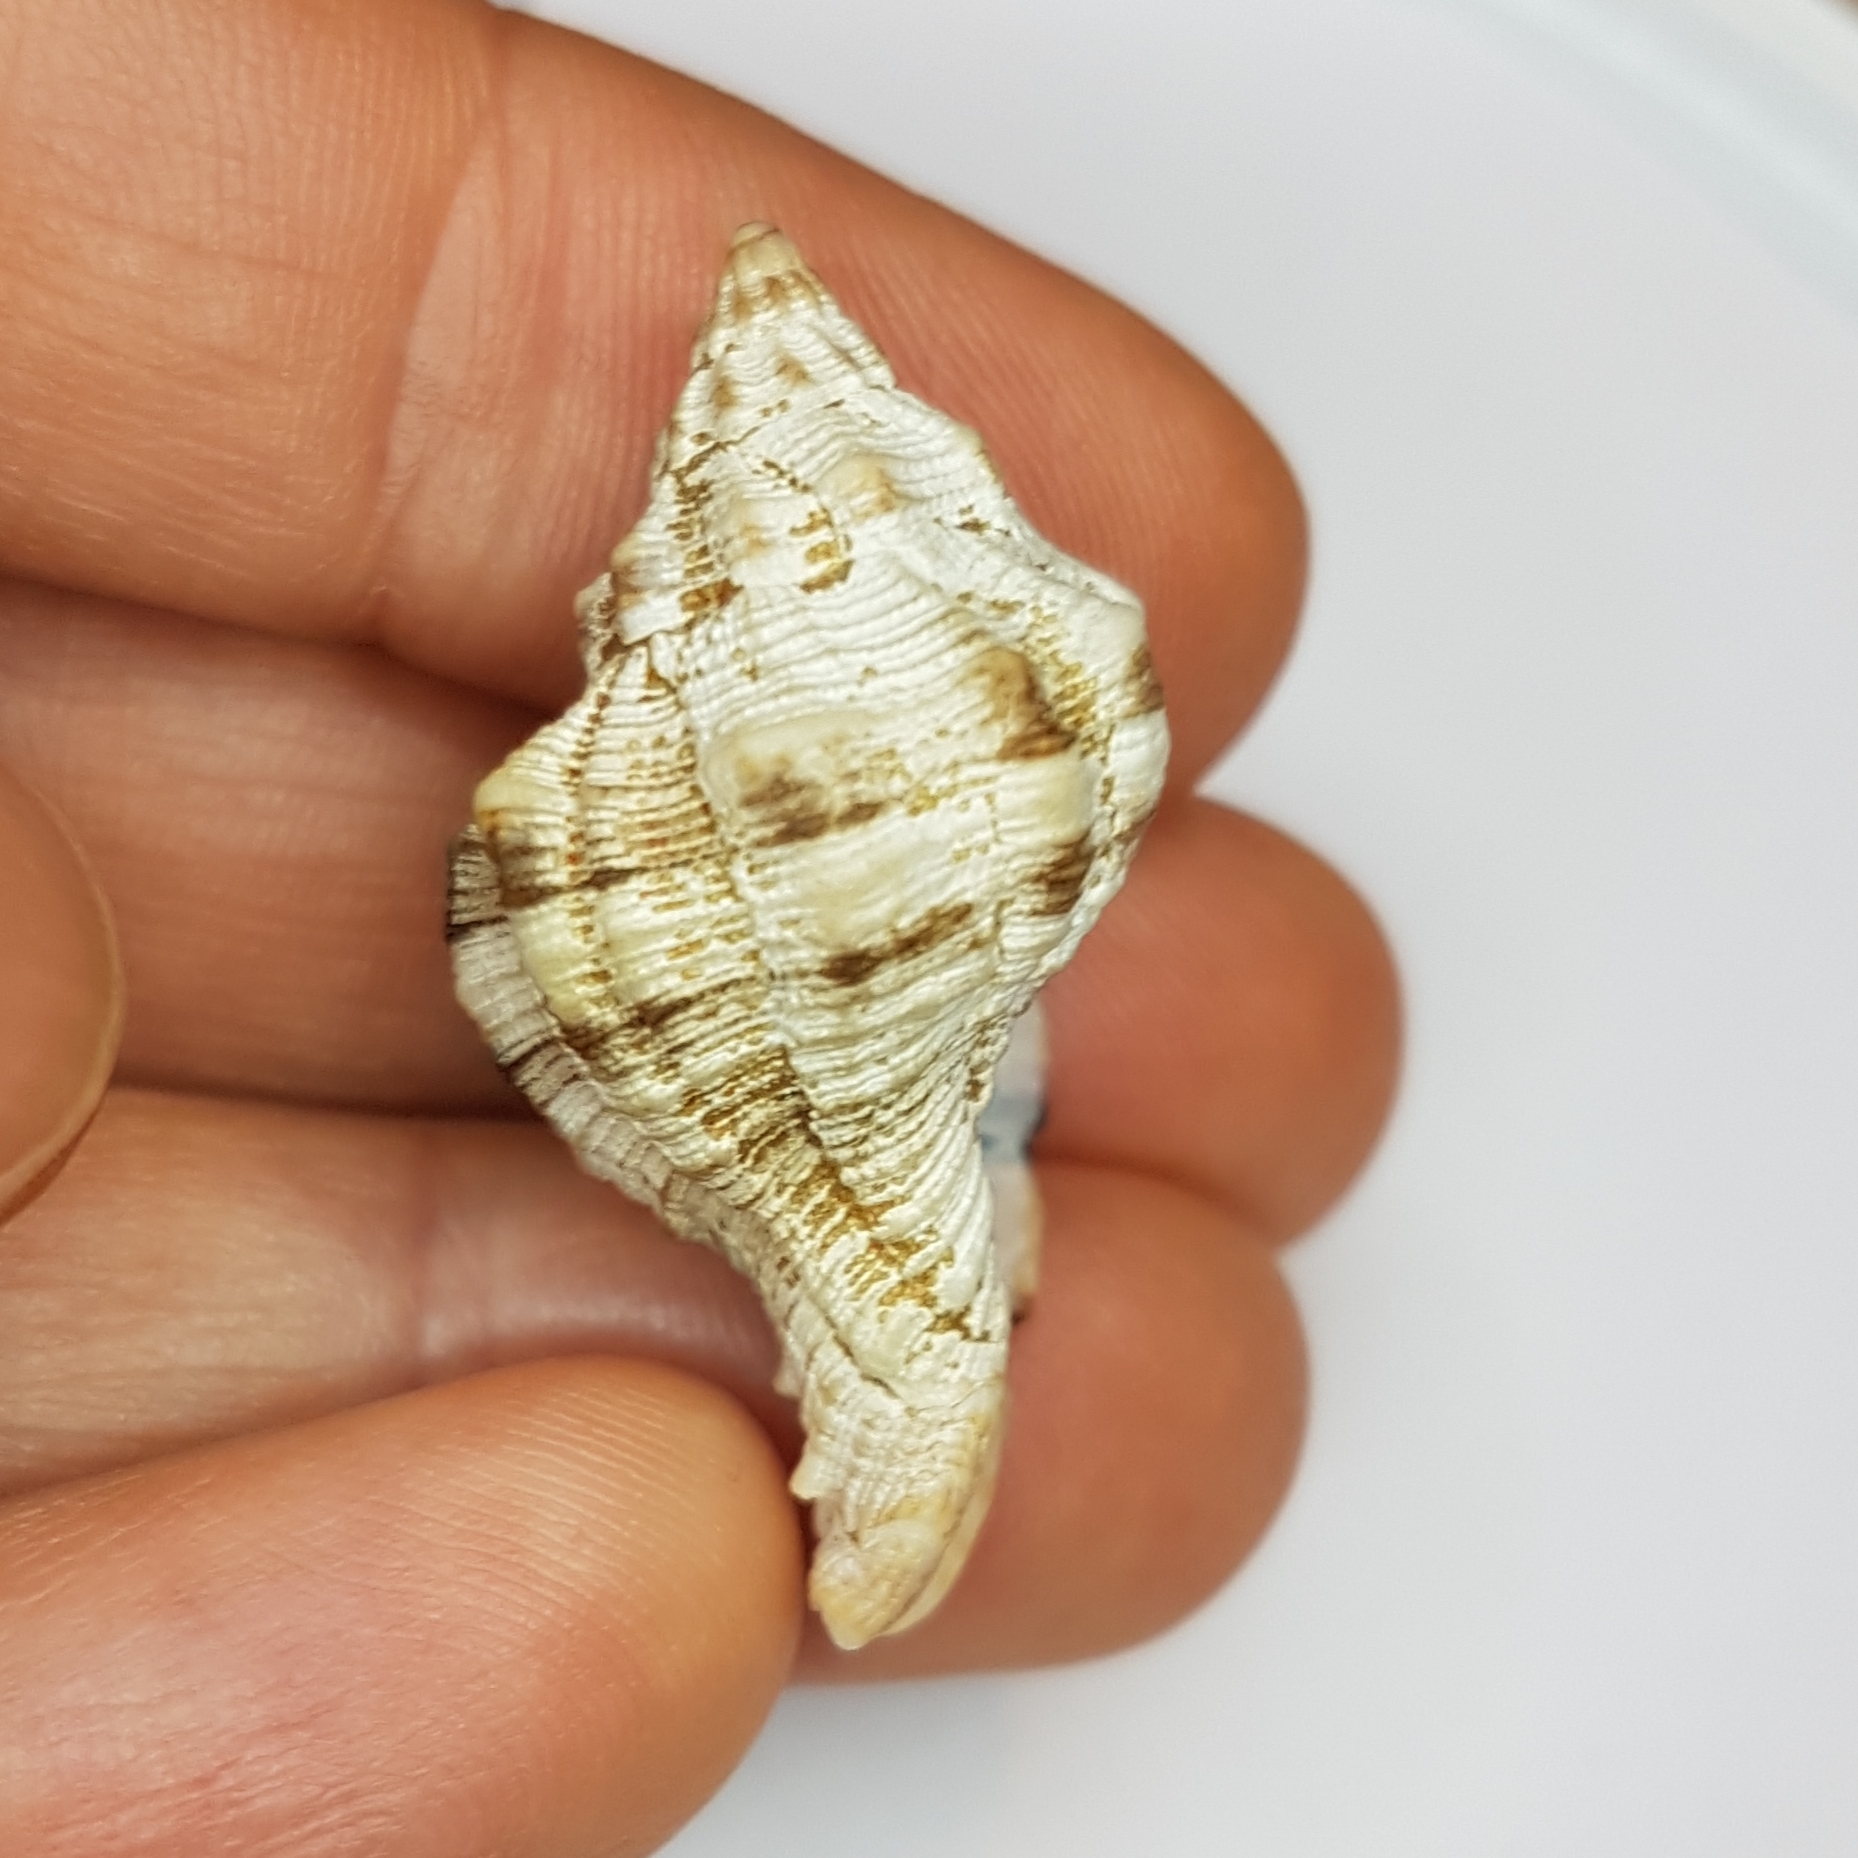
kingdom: Animalia
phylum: Mollusca
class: Gastropoda
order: Neogastropoda
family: Muricidae
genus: Hexaplex
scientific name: Hexaplex trunculus
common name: Banded dye-murex
